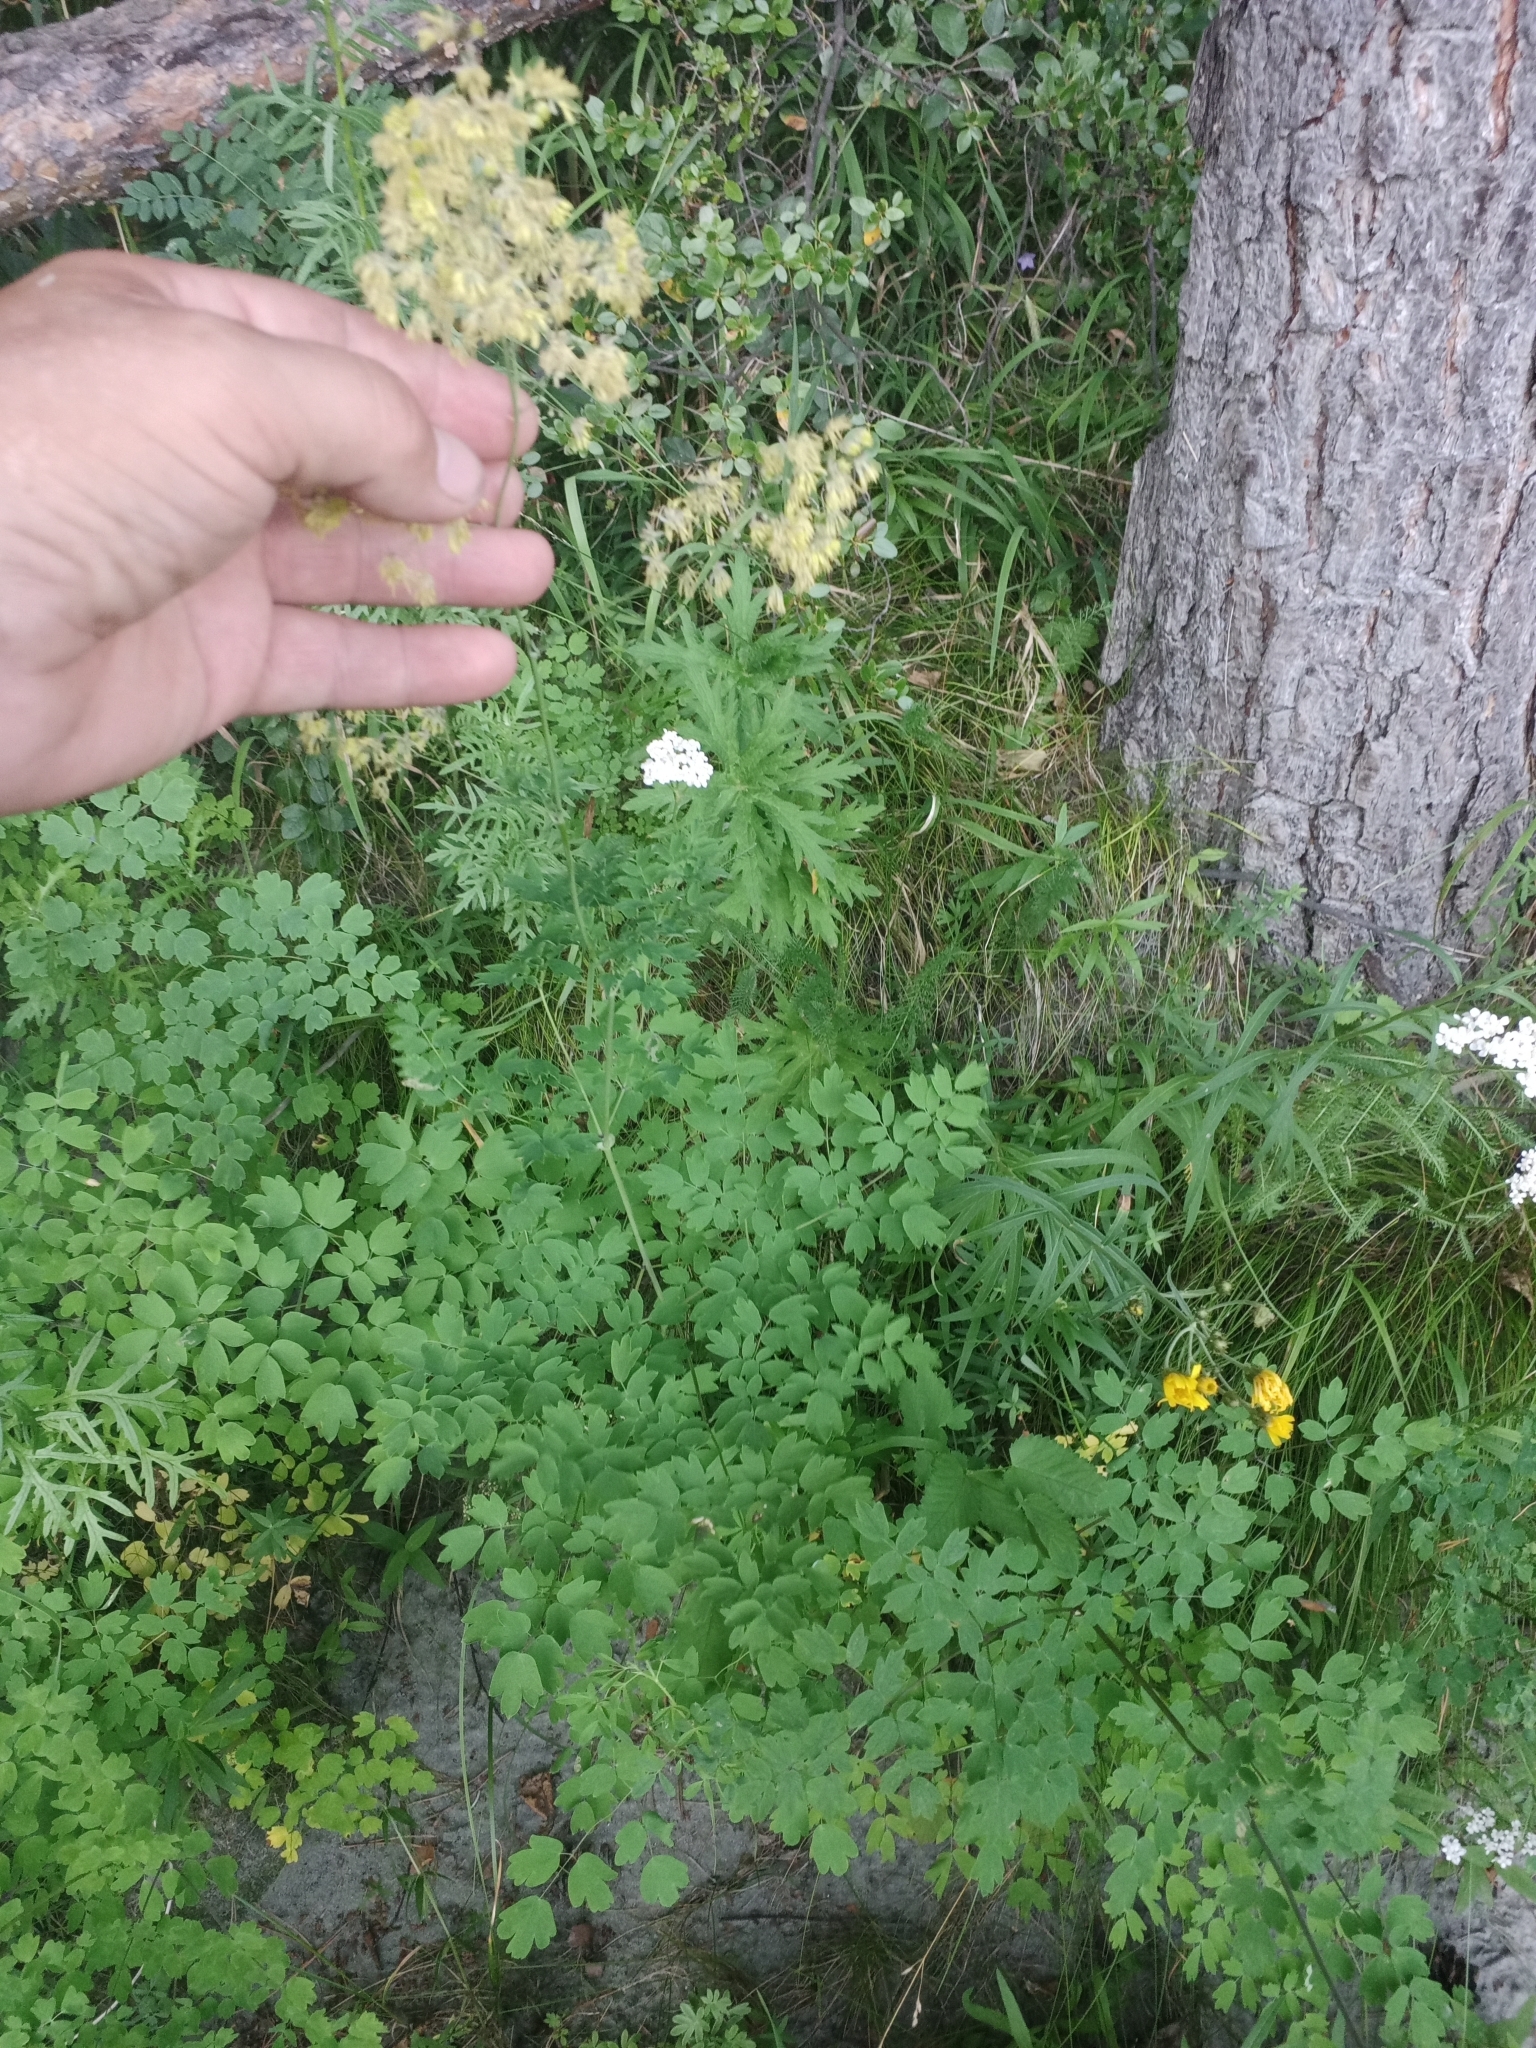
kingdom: Plantae
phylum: Tracheophyta
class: Magnoliopsida
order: Ranunculales
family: Ranunculaceae
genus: Thalictrum
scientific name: Thalictrum minus
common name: Lesser meadow-rue
